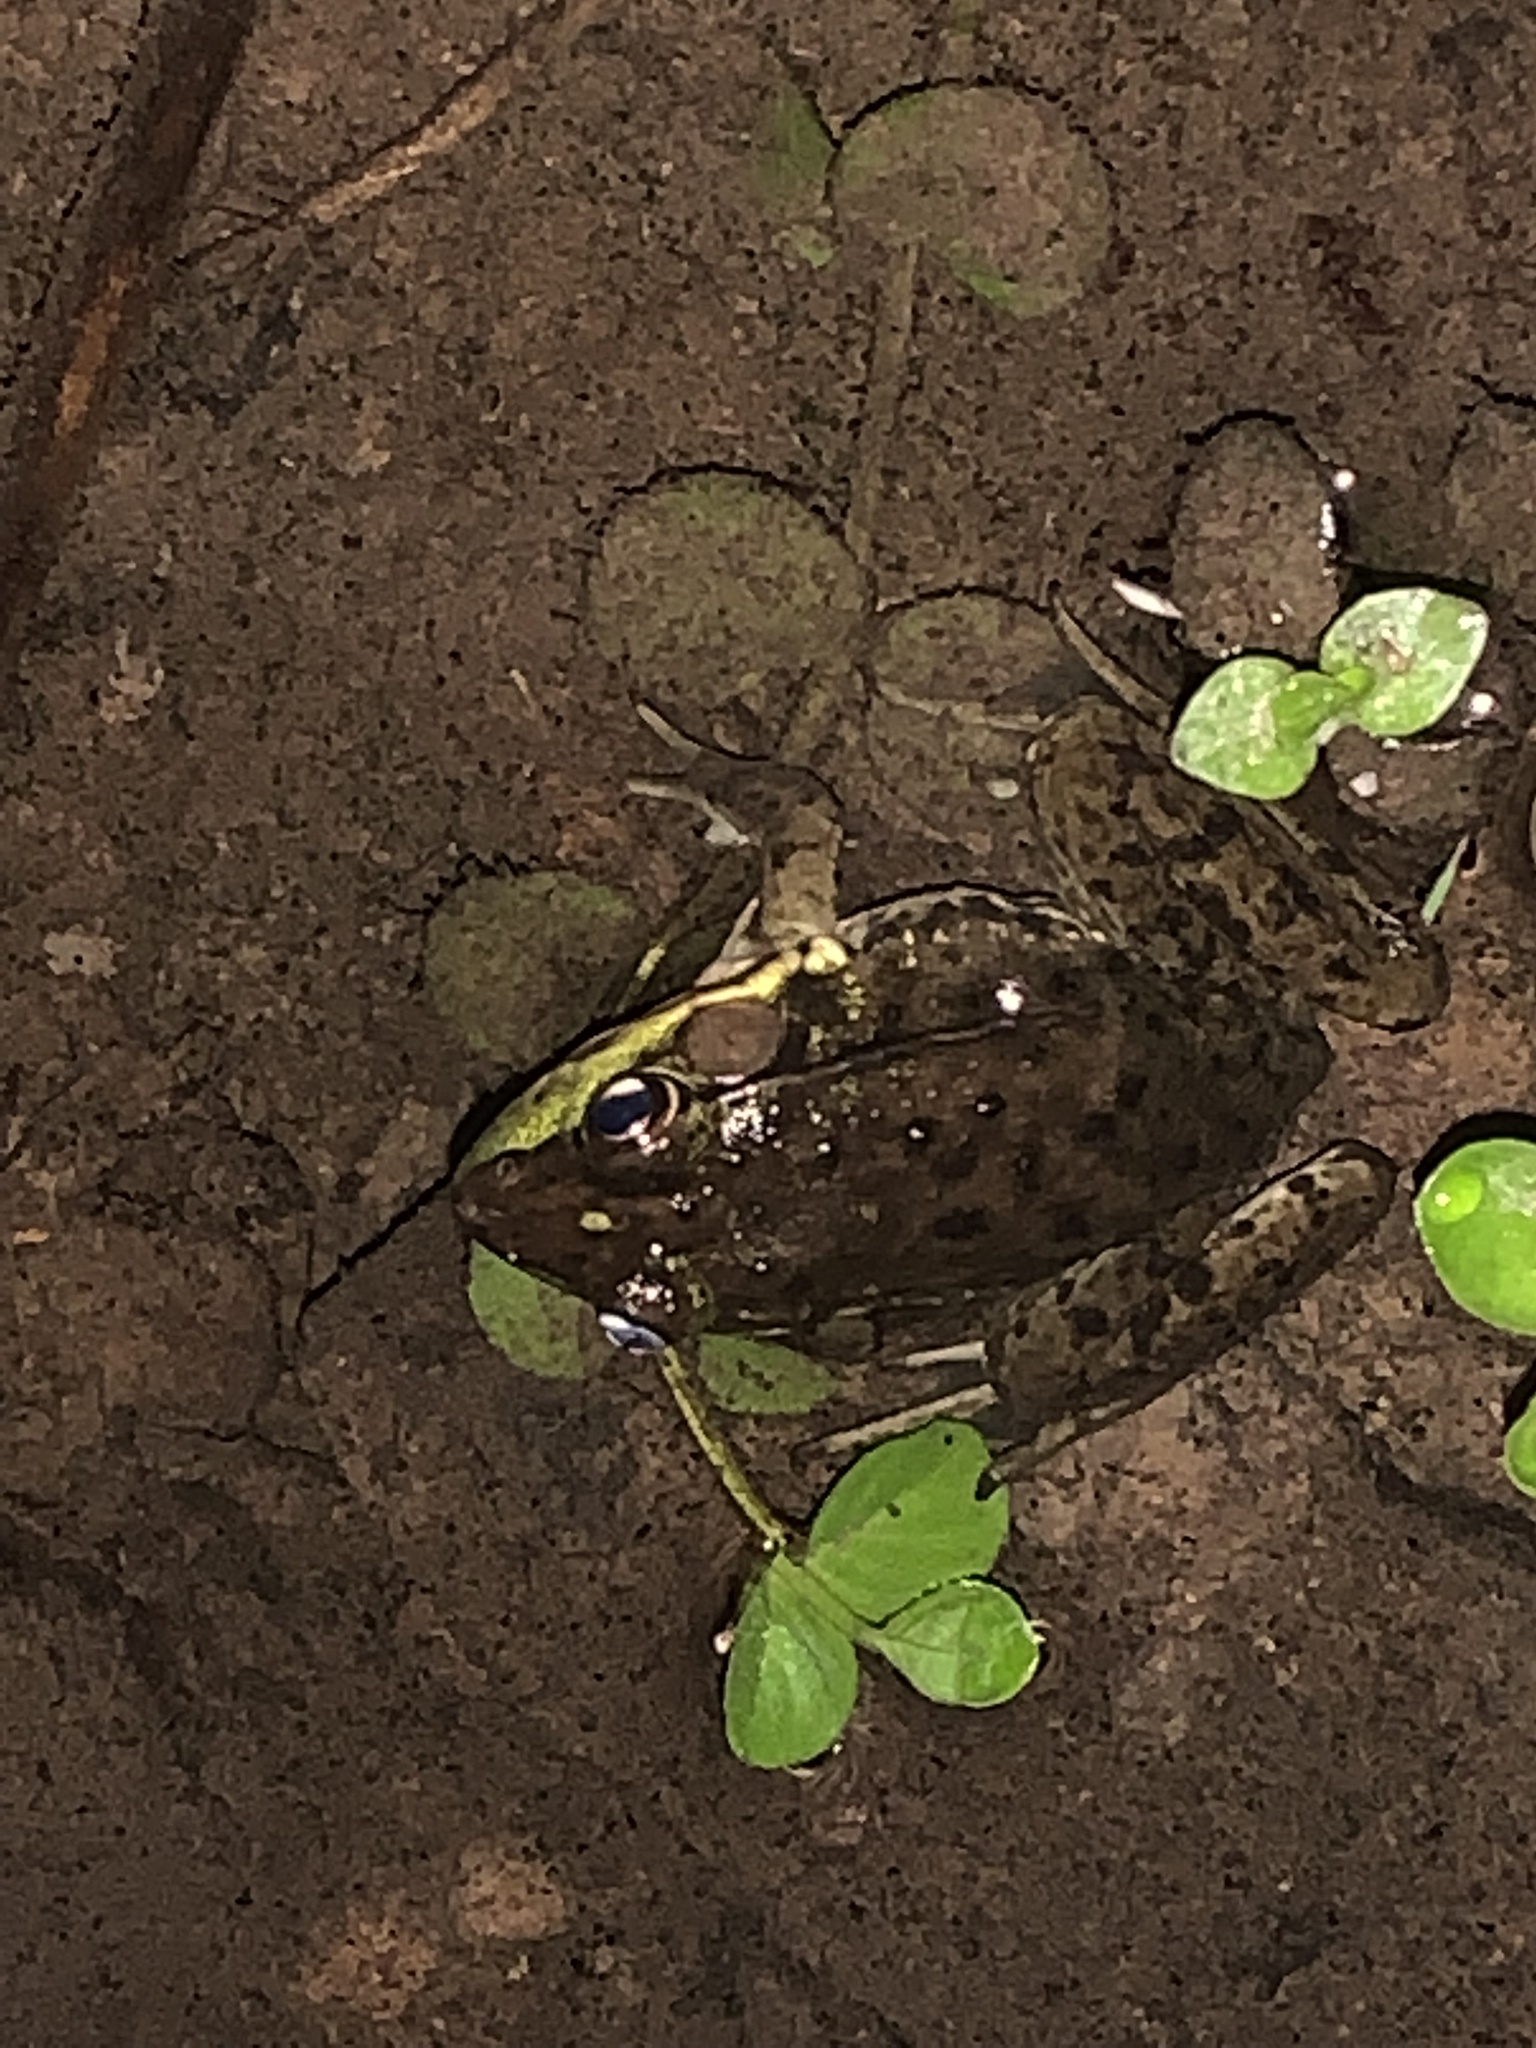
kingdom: Animalia
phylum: Chordata
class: Amphibia
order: Anura
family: Ranidae
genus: Lithobates
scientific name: Lithobates clamitans
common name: Green frog
